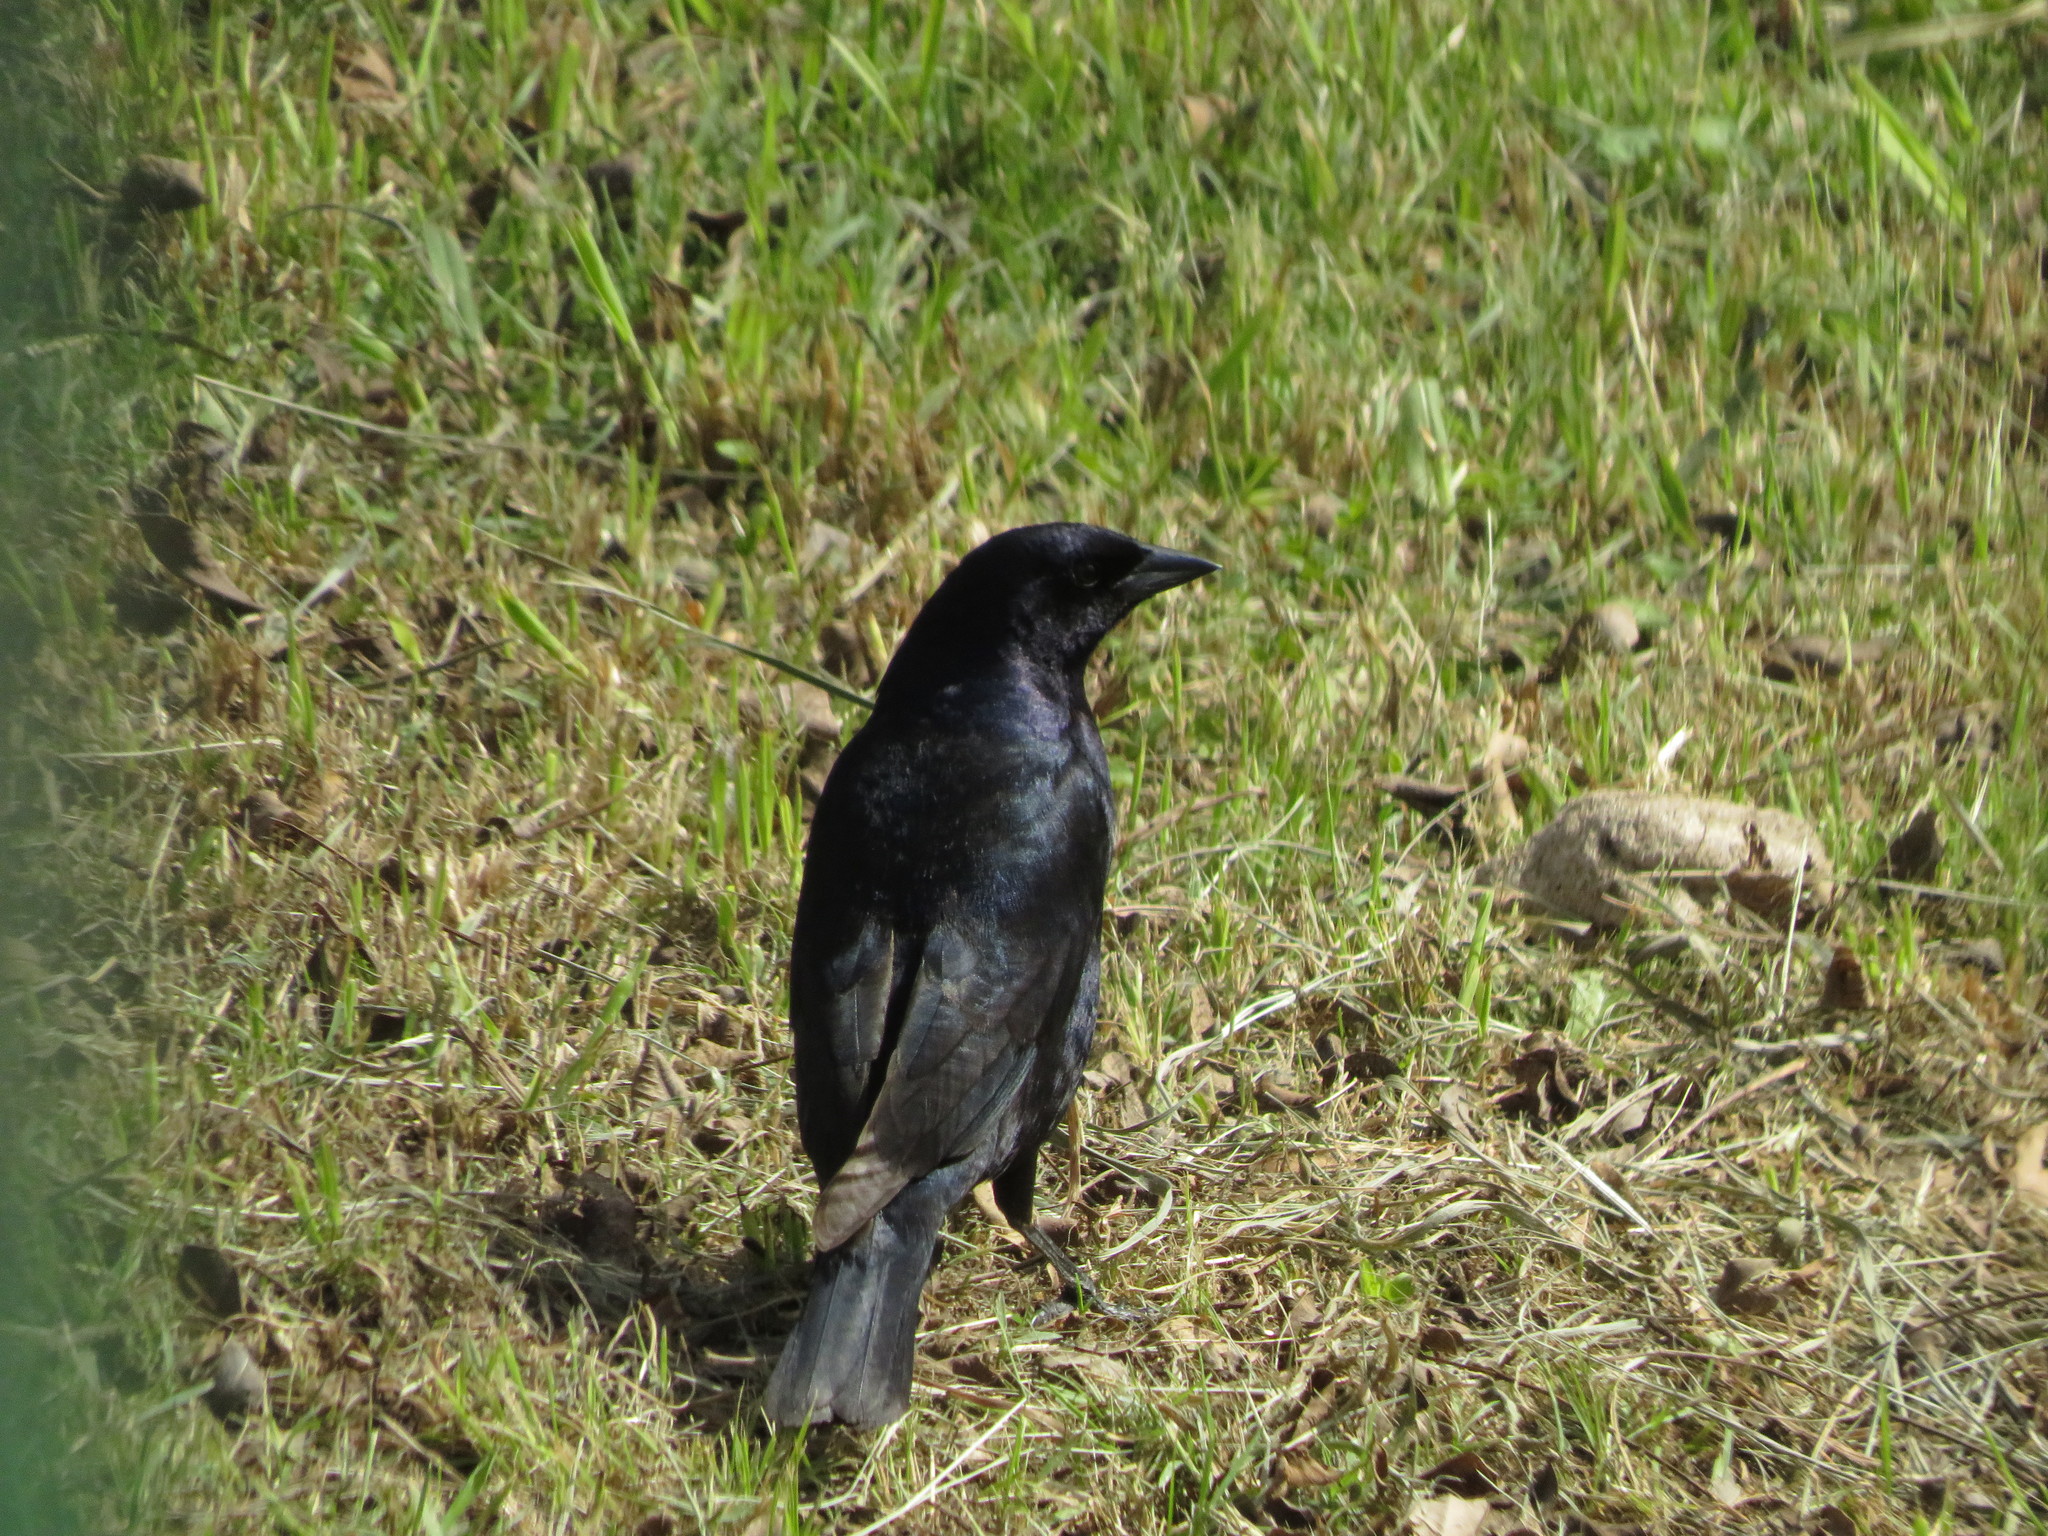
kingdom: Animalia
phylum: Chordata
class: Aves
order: Passeriformes
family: Icteridae
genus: Molothrus
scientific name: Molothrus bonariensis
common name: Shiny cowbird
